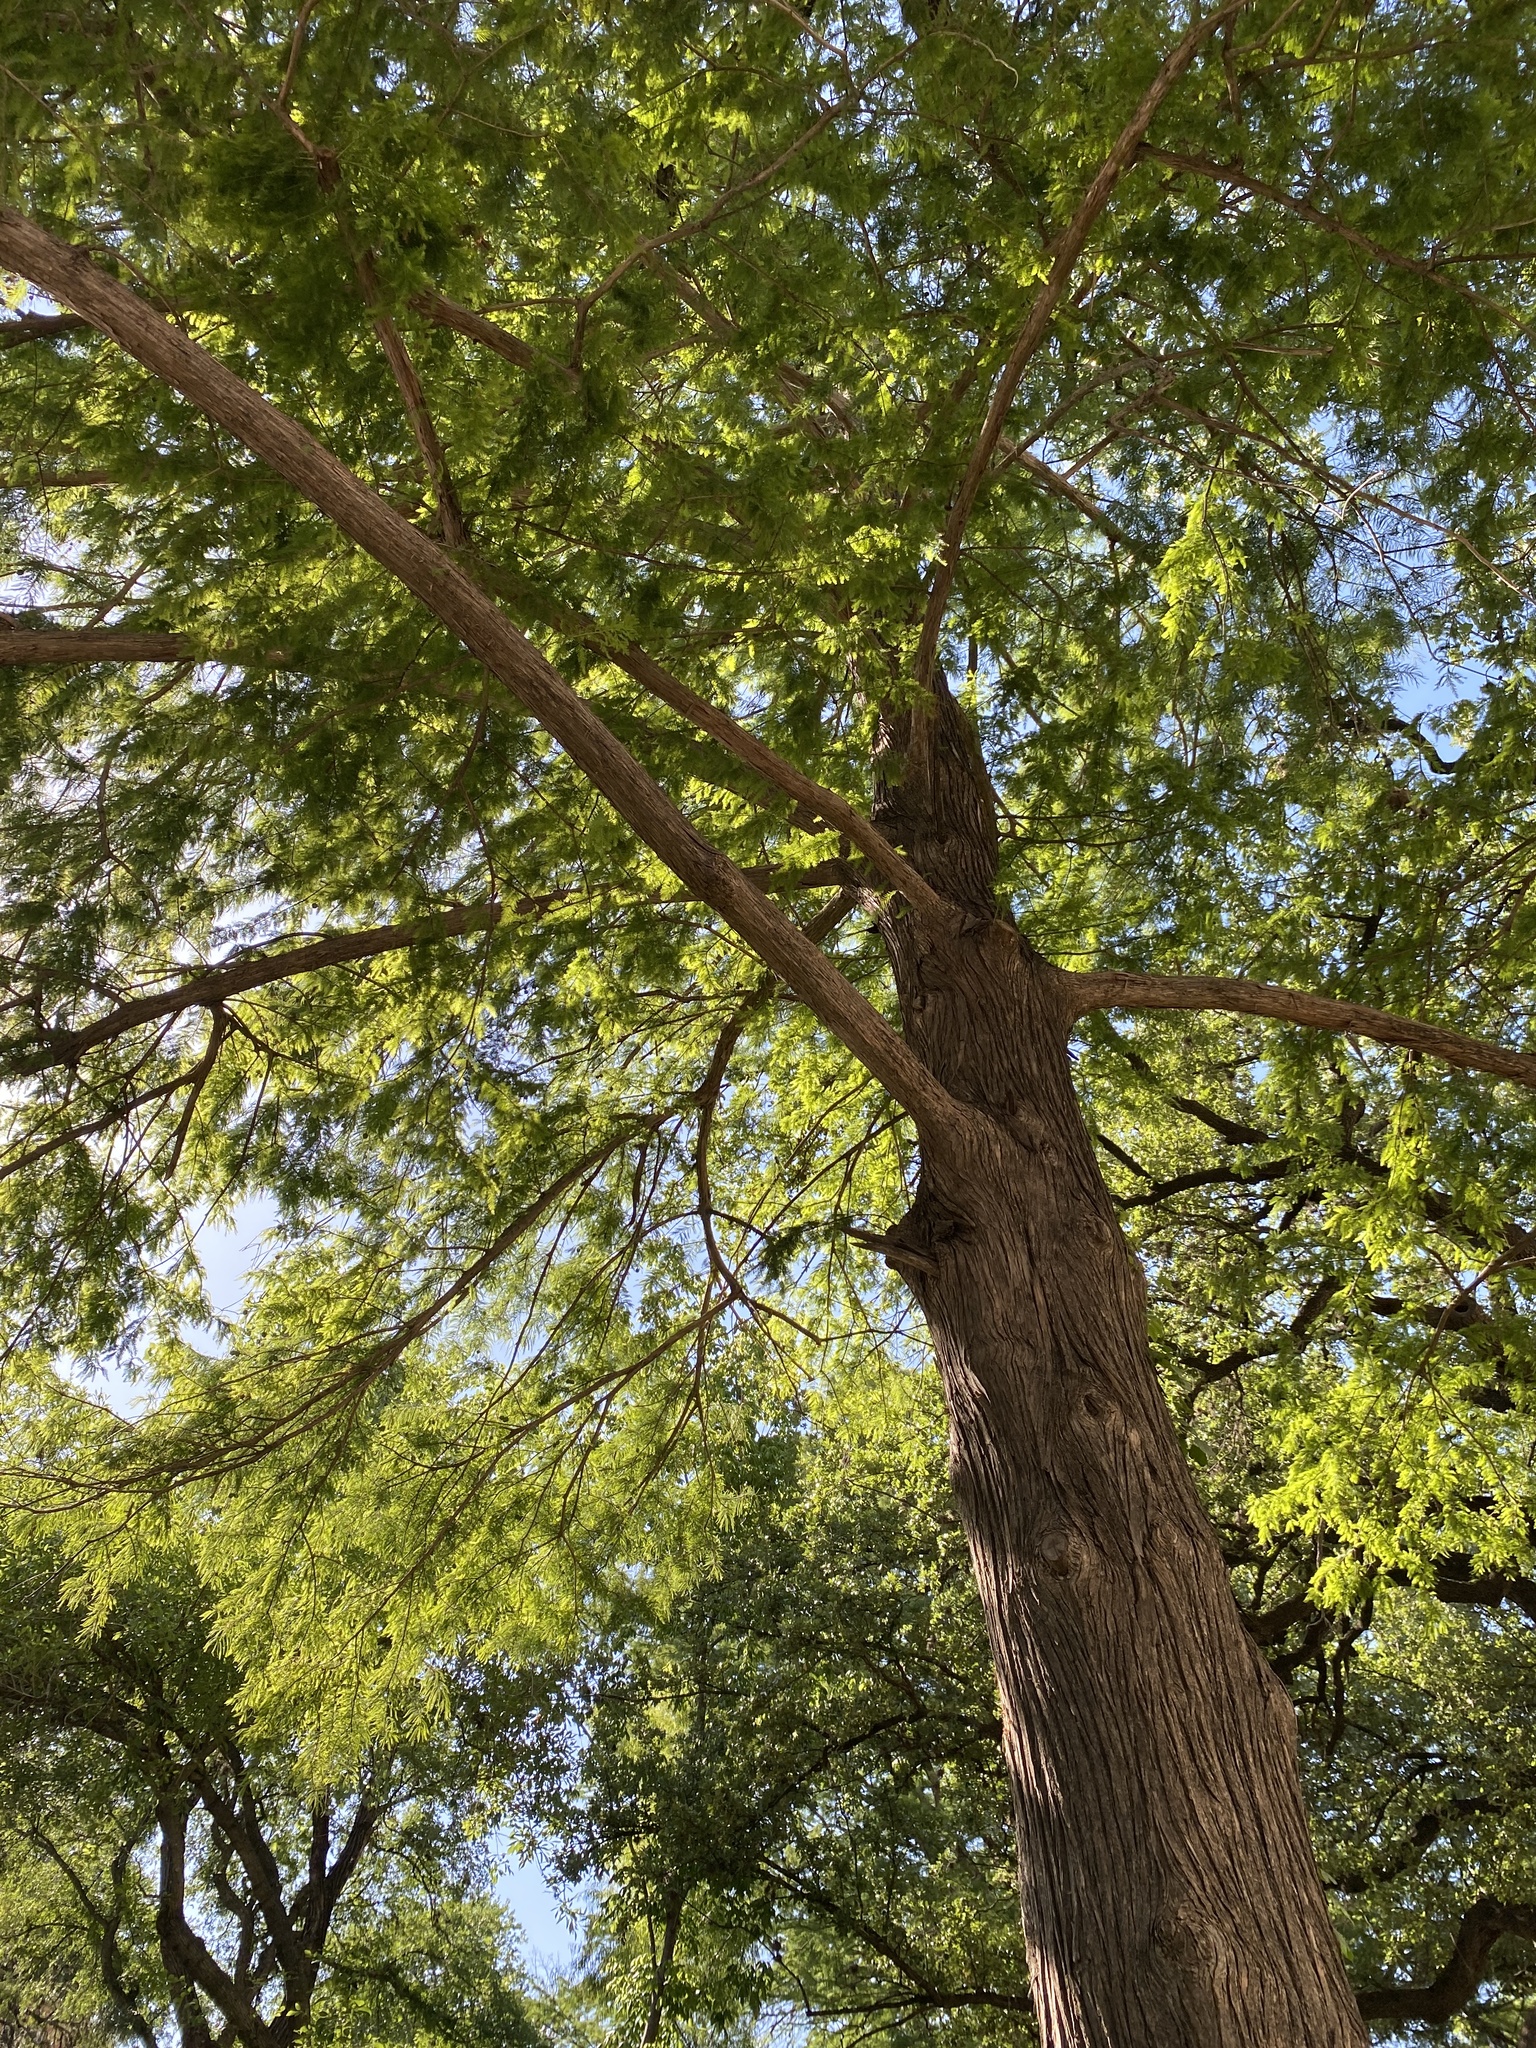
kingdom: Plantae
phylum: Tracheophyta
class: Pinopsida
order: Pinales
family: Cupressaceae
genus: Taxodium
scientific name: Taxodium distichum
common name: Bald cypress
